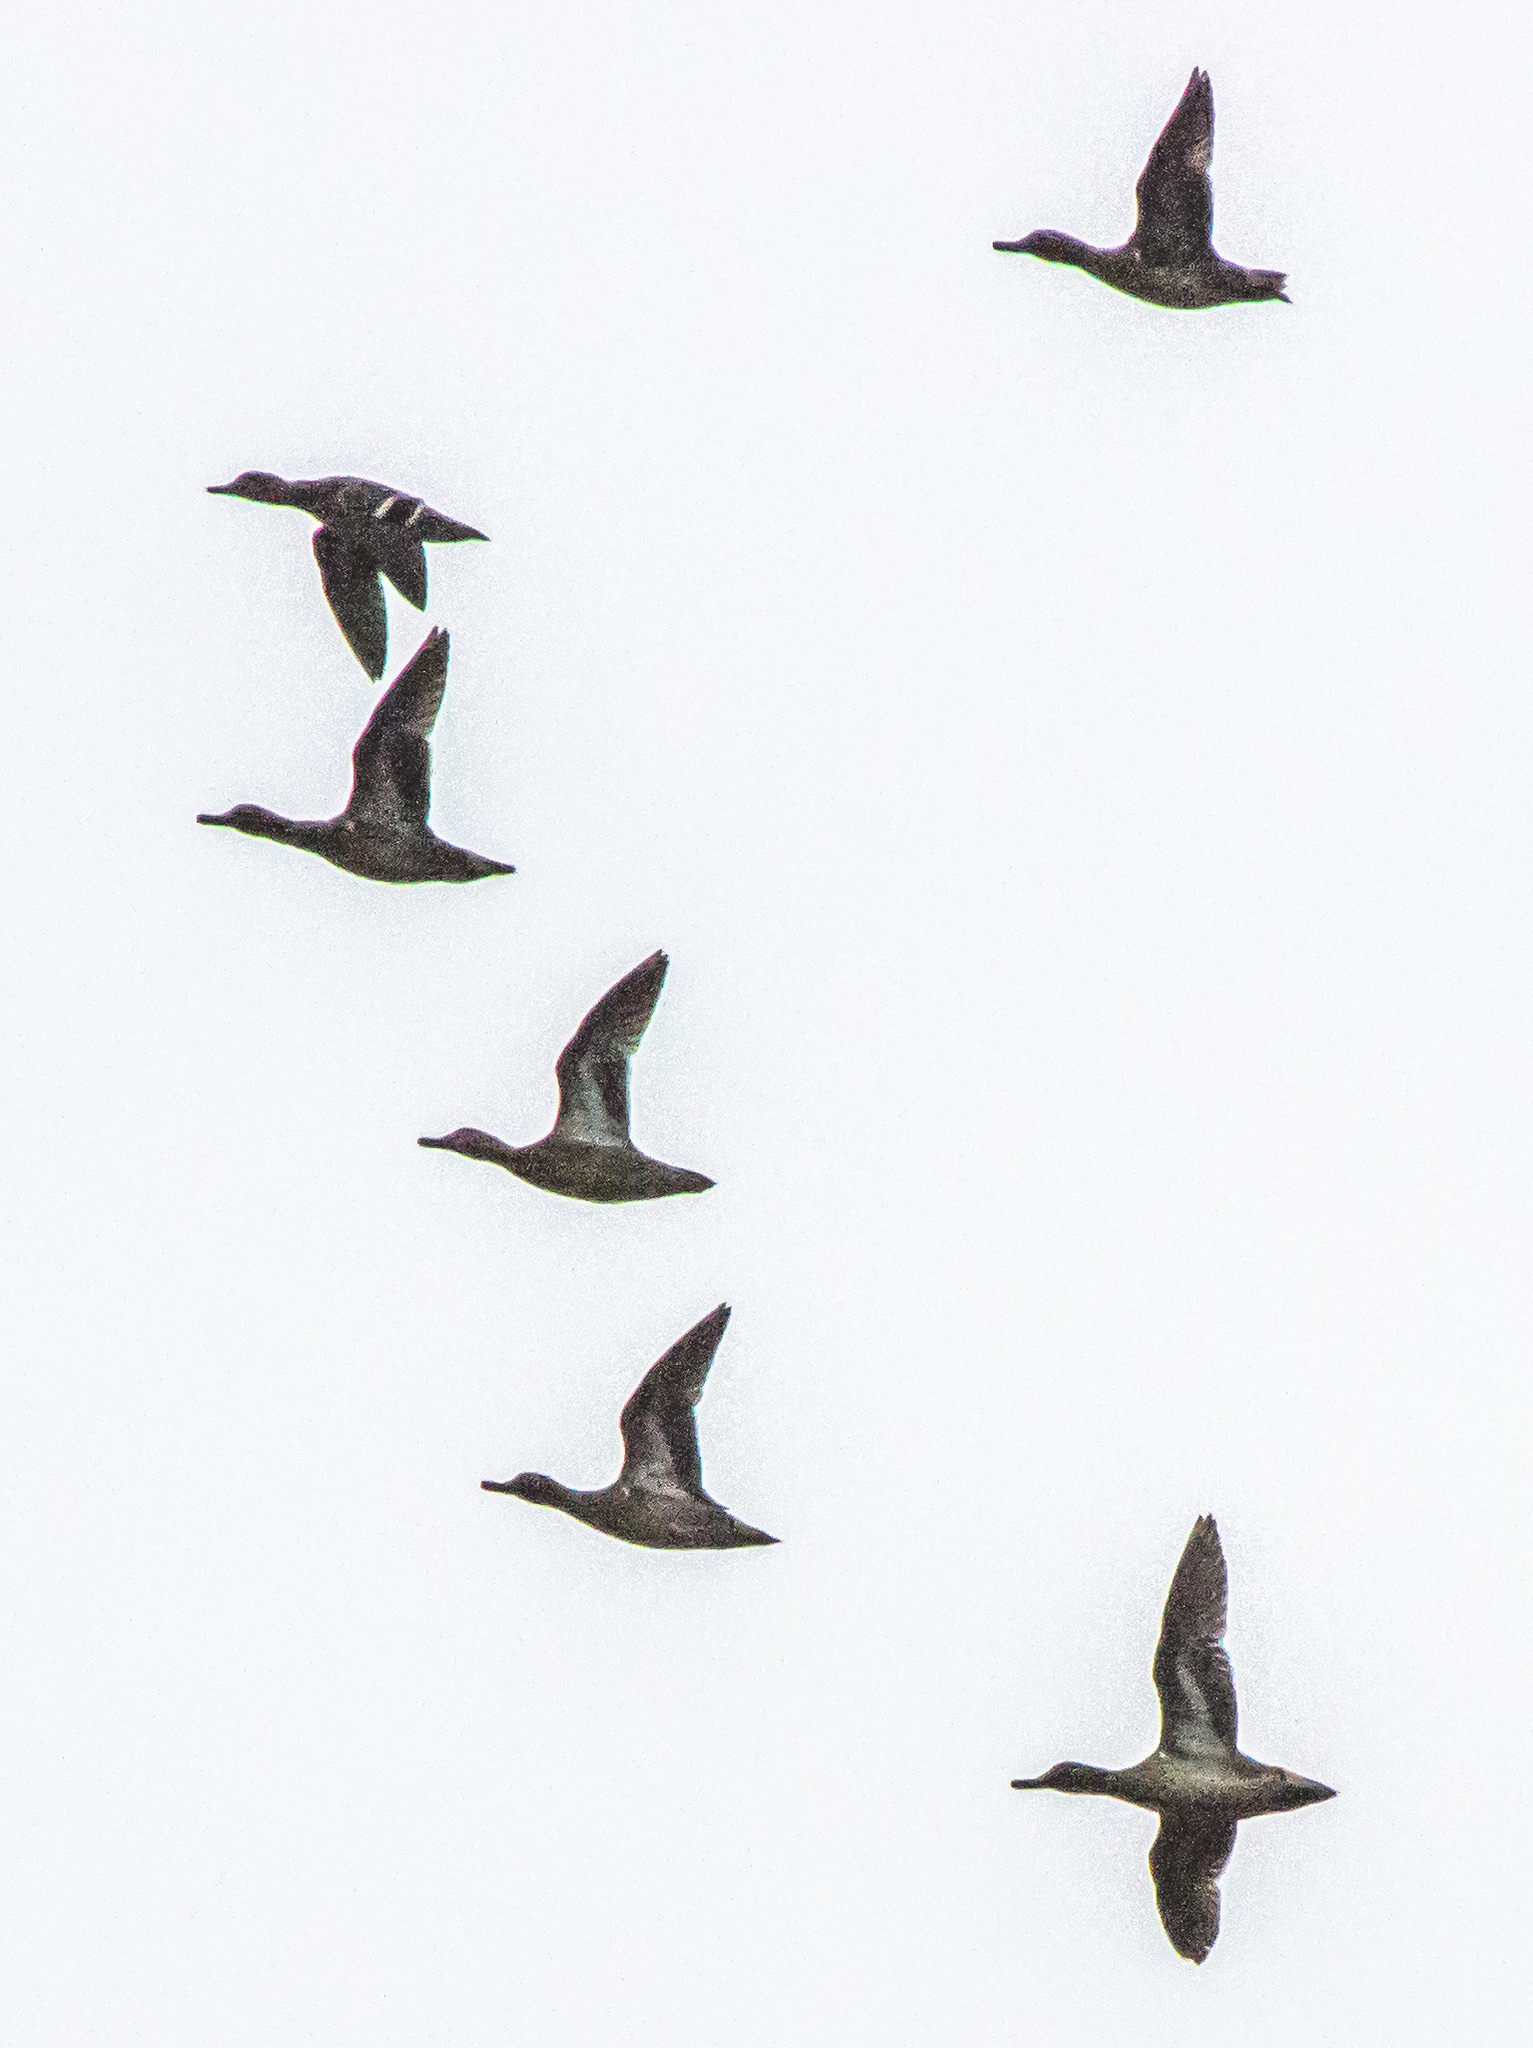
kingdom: Animalia
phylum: Chordata
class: Aves
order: Anseriformes
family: Anatidae
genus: Anas
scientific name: Anas crecca
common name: Eurasian teal
